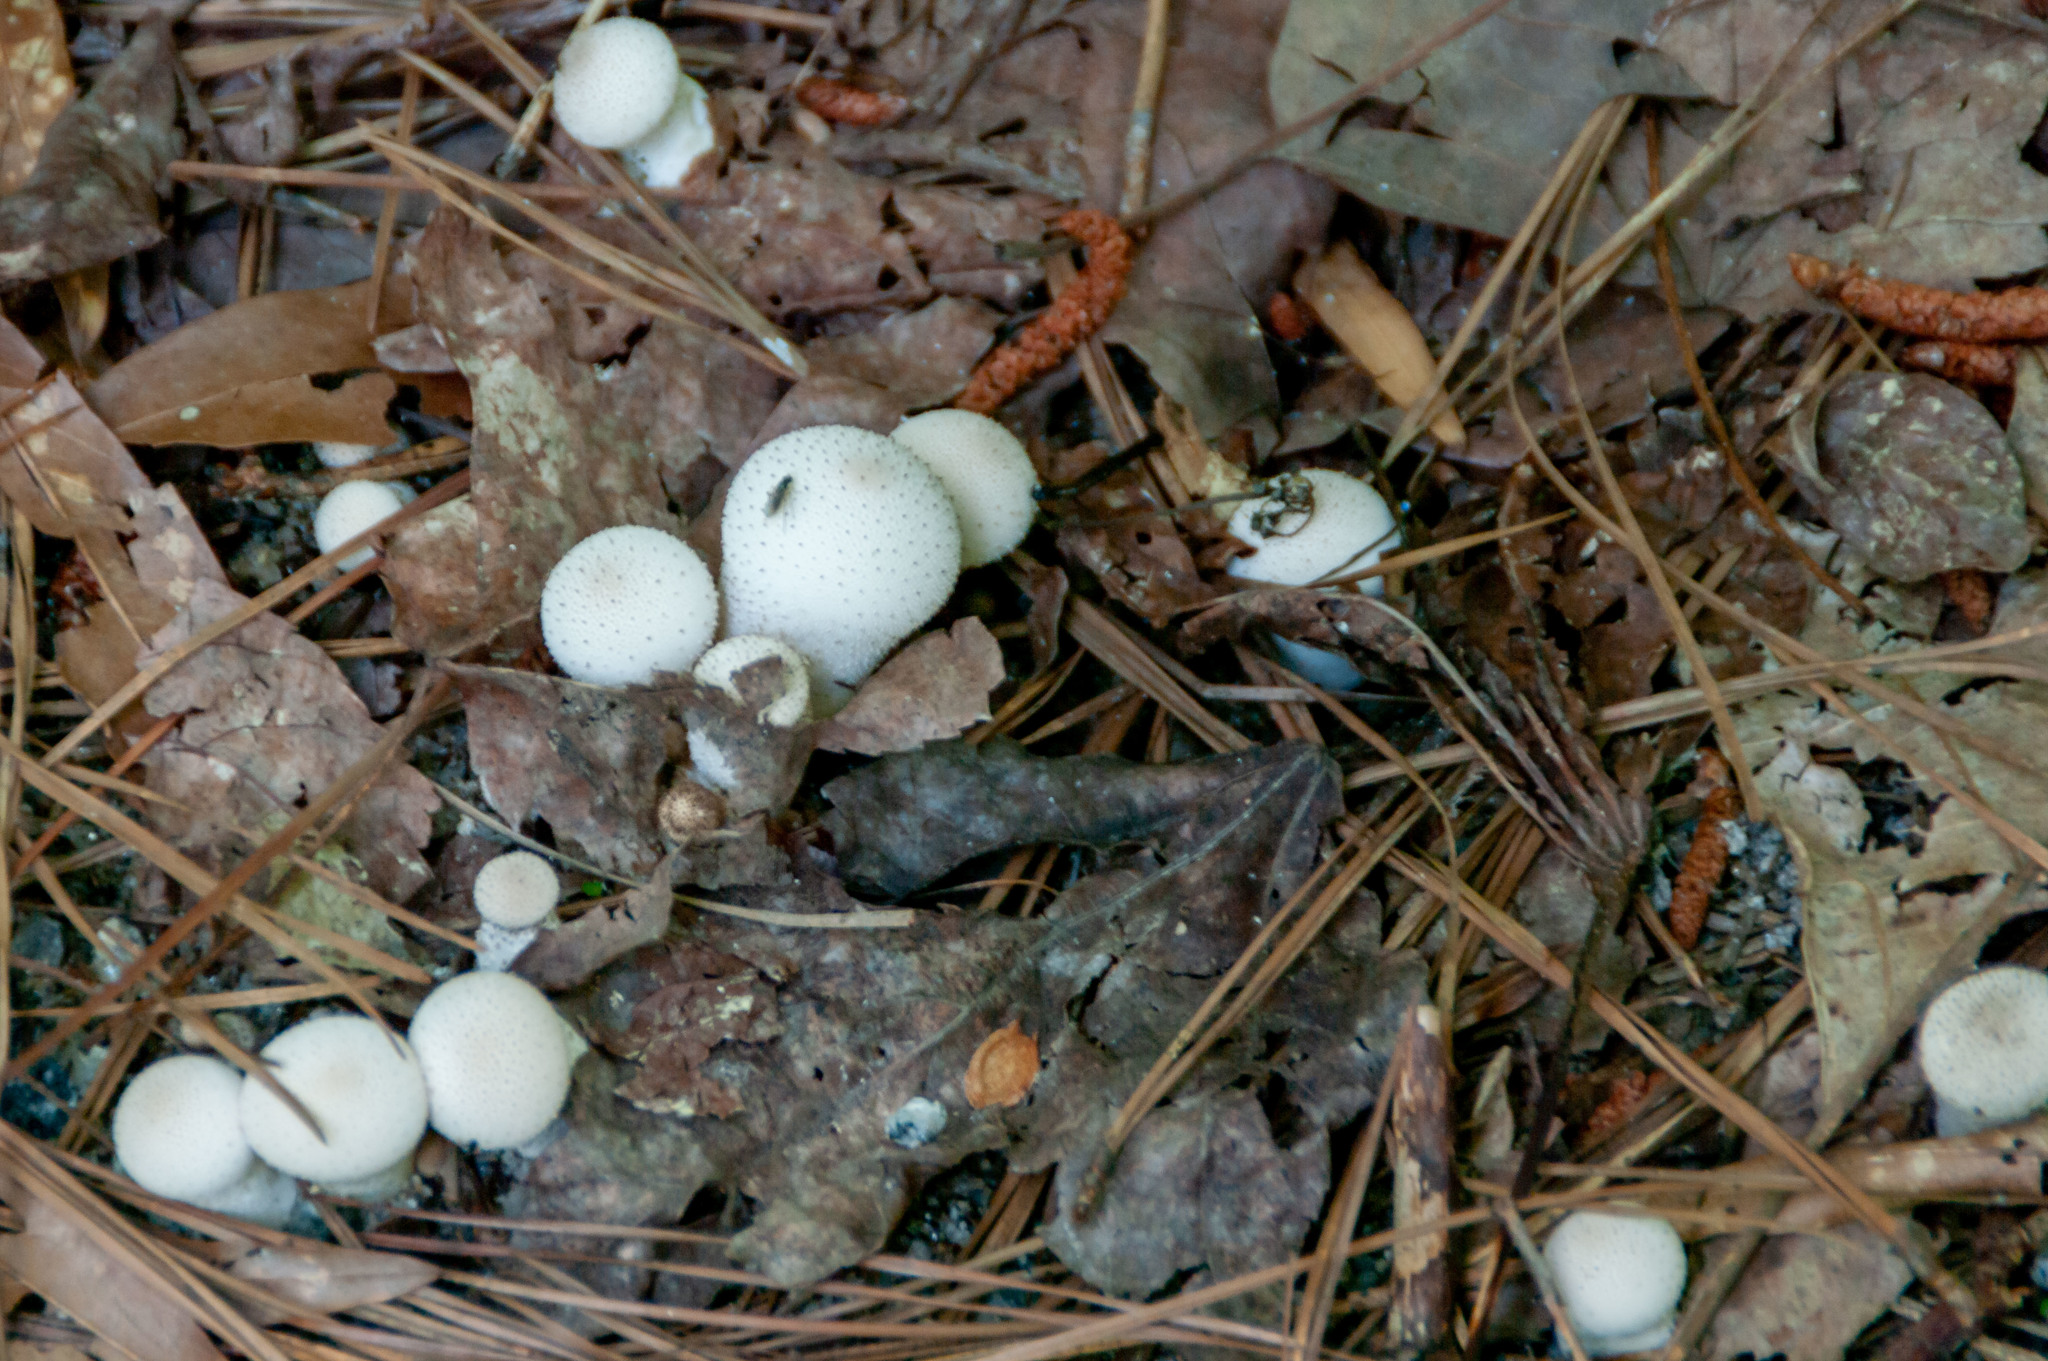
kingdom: Fungi
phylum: Basidiomycota
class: Agaricomycetes
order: Agaricales
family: Lycoperdaceae
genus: Lycoperdon
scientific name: Lycoperdon perlatum
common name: Common puffball
